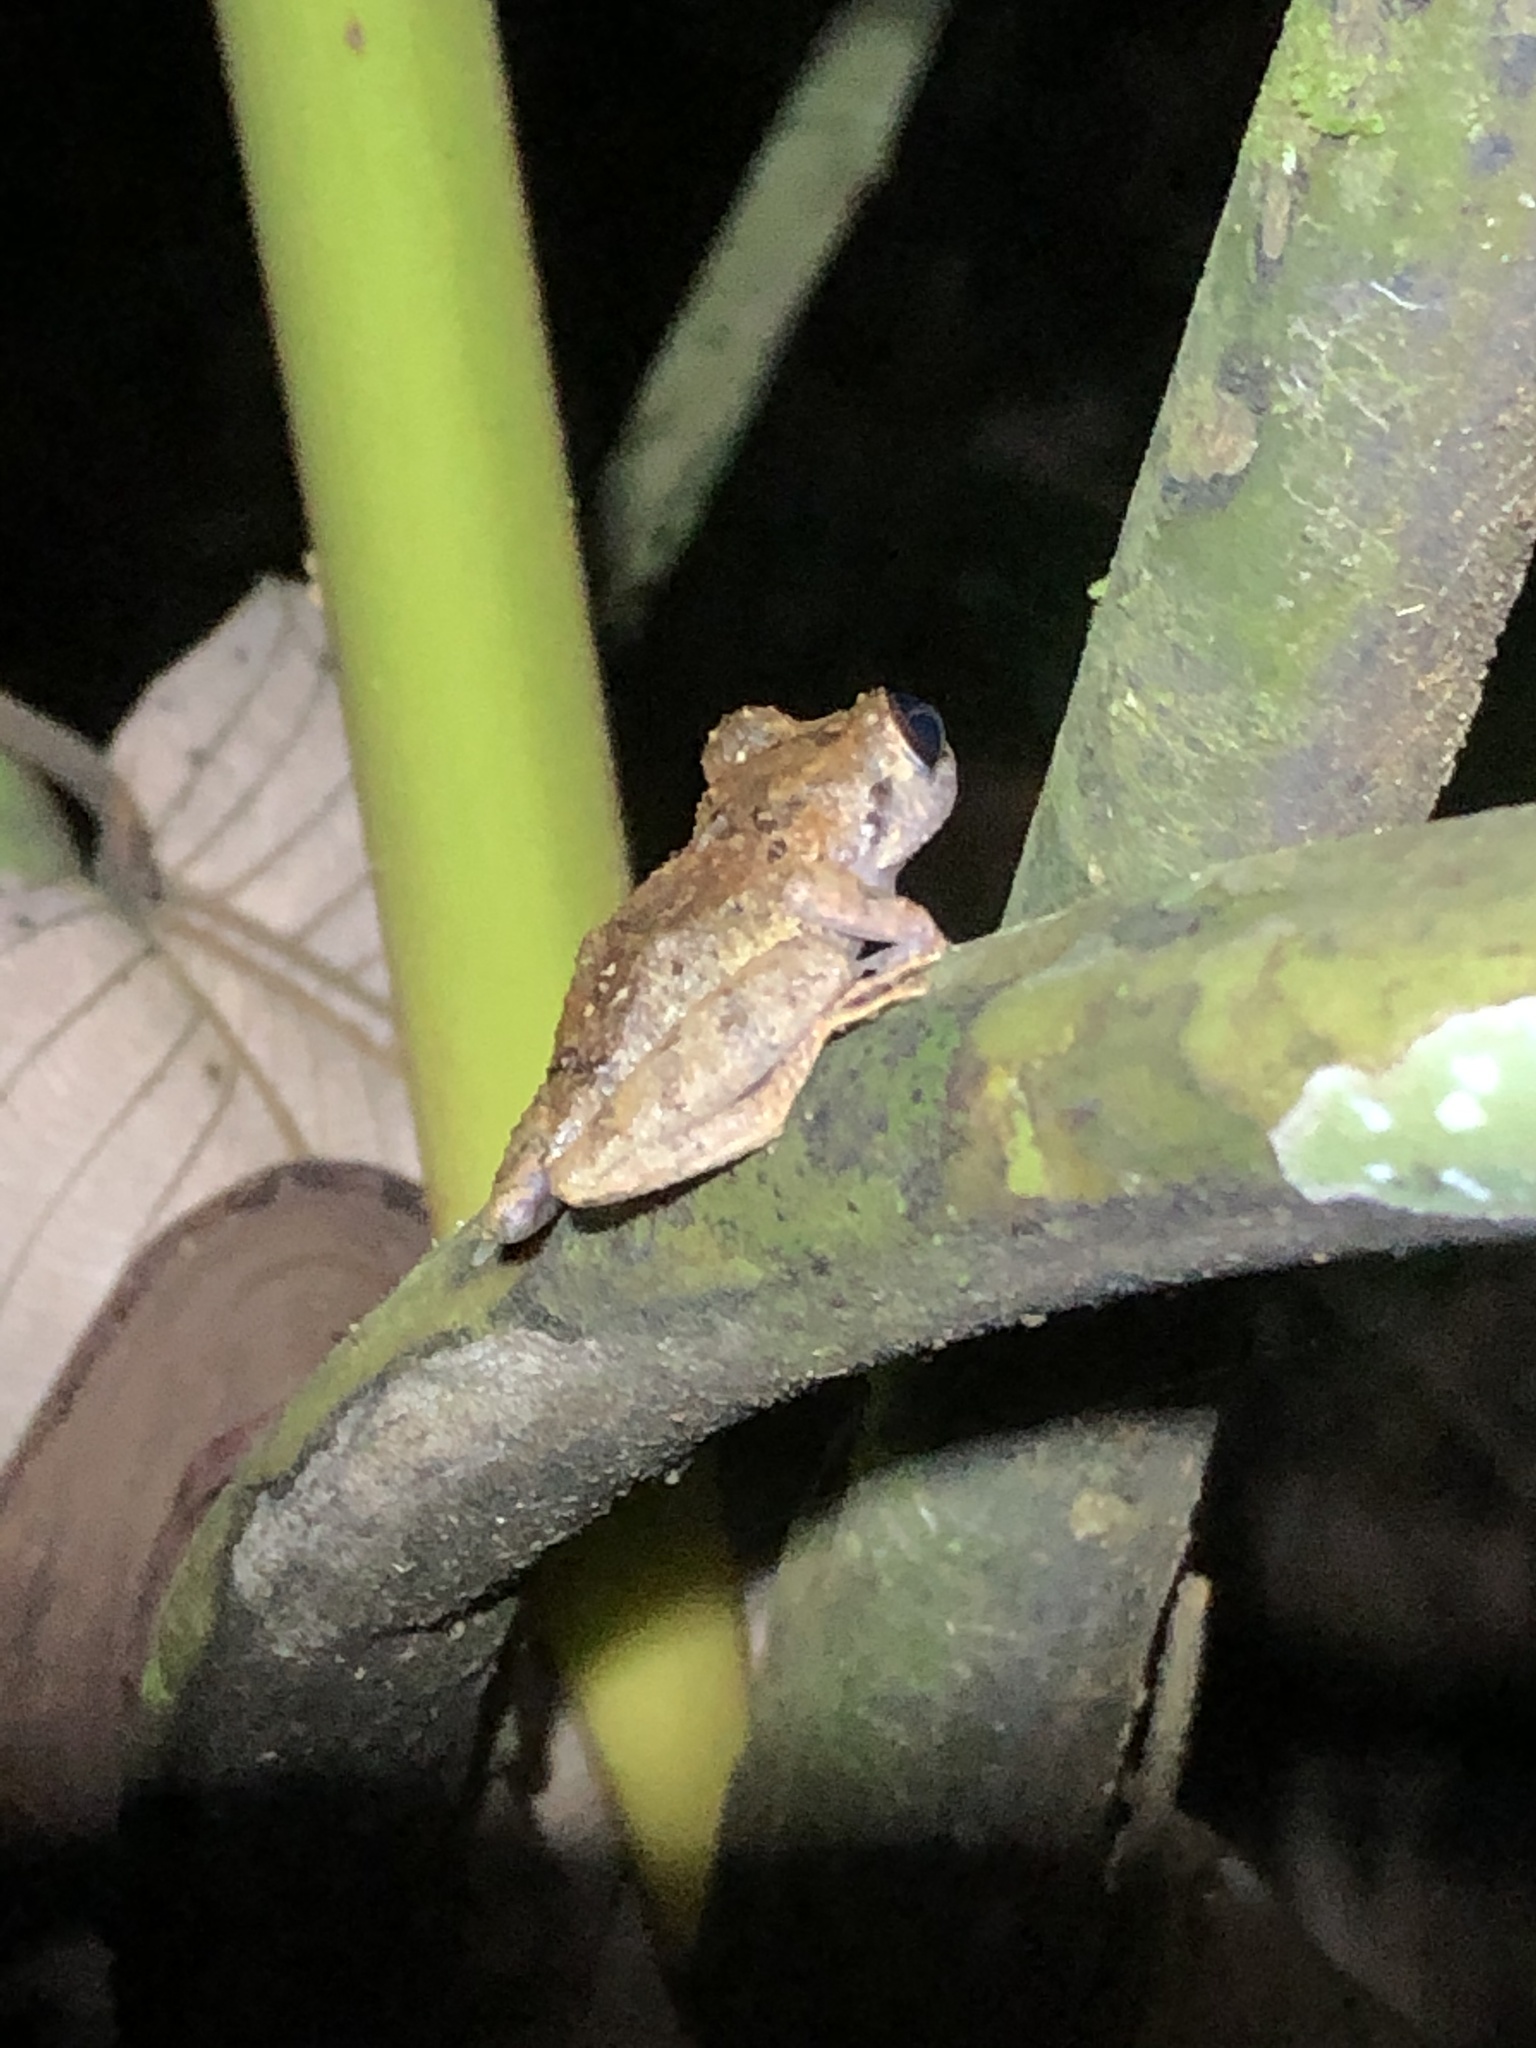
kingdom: Animalia
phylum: Chordata
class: Amphibia
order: Anura
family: Craugastoridae
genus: Pristimantis
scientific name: Pristimantis ockendeni
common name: Carabaya robber frog
